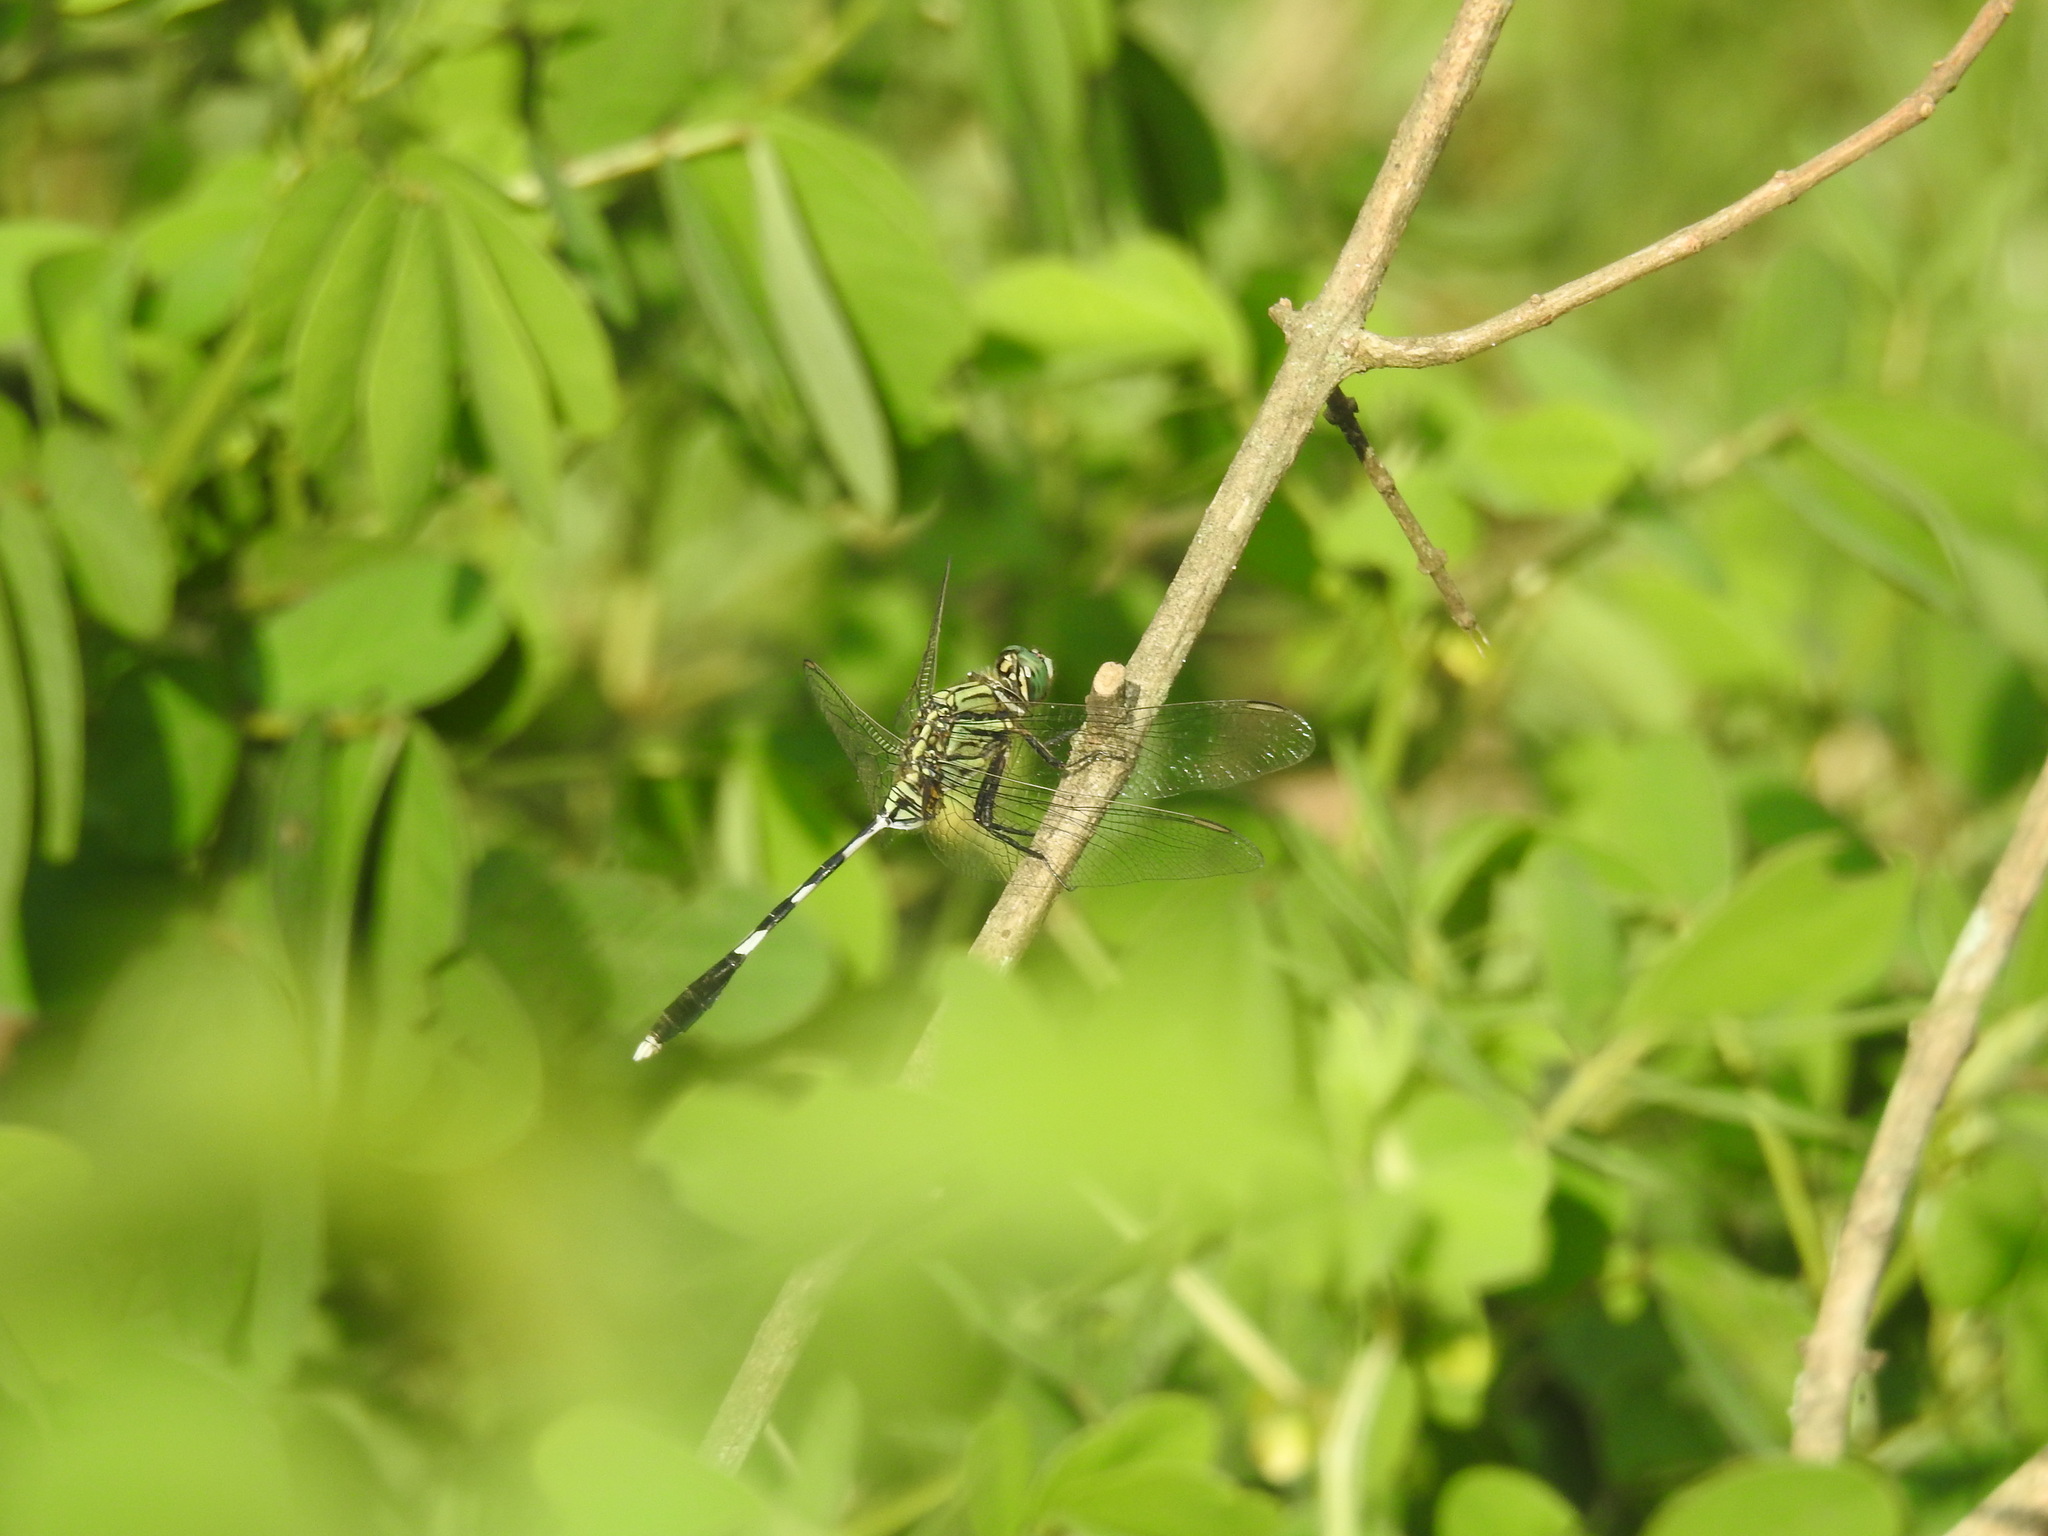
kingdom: Animalia
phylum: Arthropoda
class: Insecta
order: Odonata
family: Libellulidae
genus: Orthetrum
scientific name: Orthetrum sabina
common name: Slender skimmer
